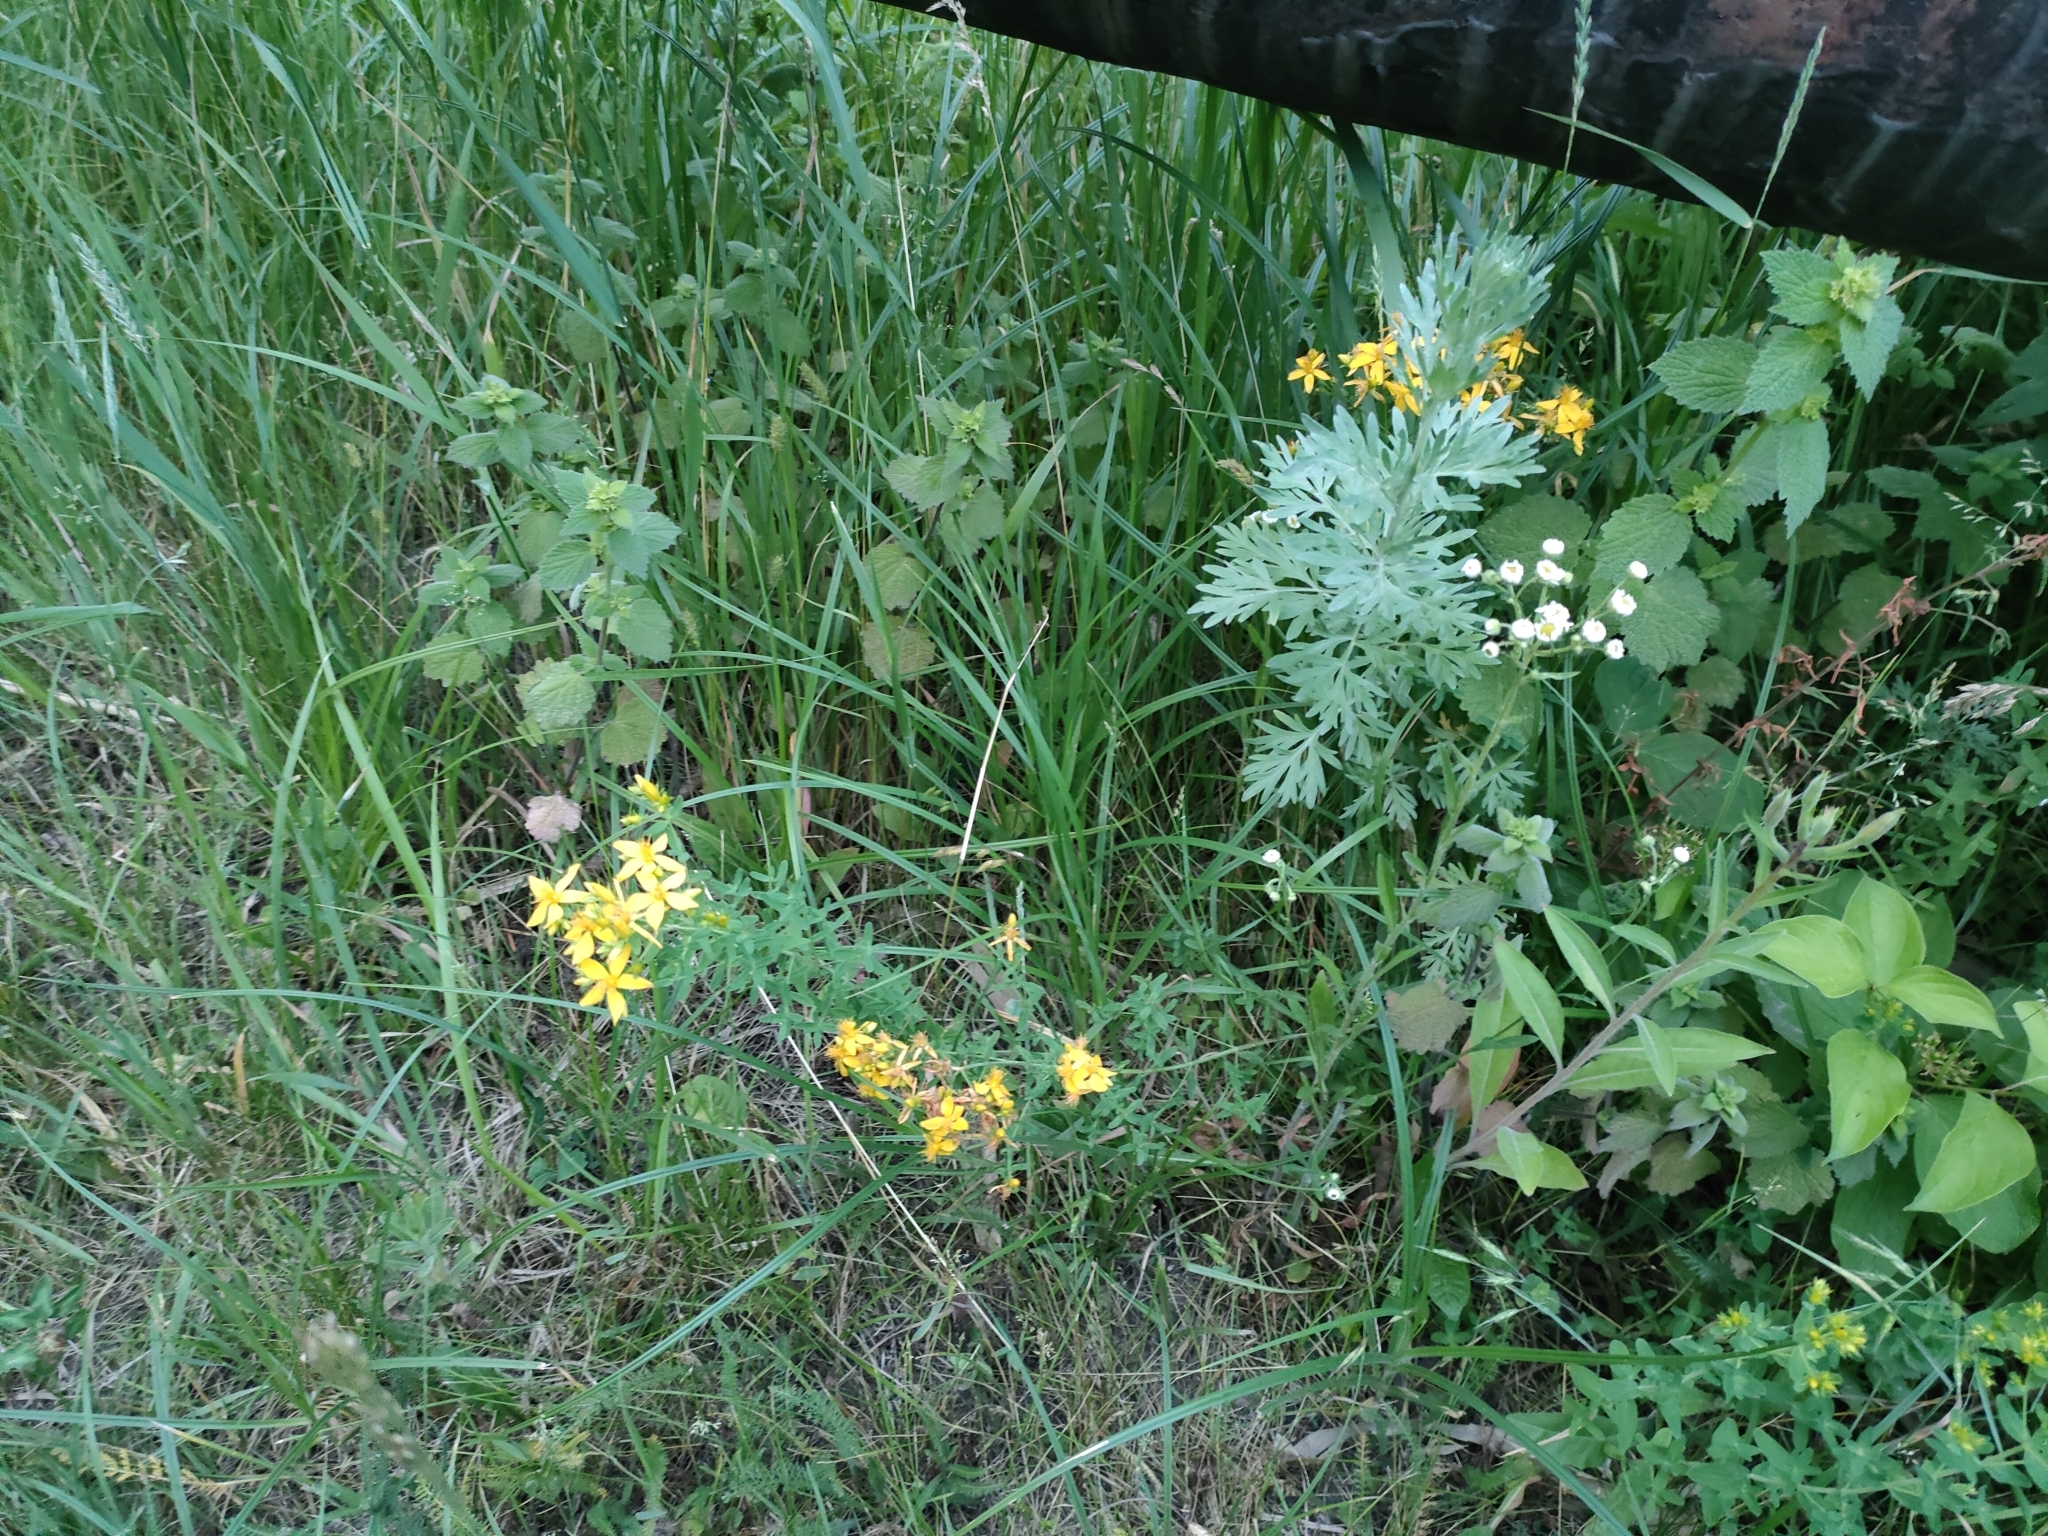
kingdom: Plantae
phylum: Tracheophyta
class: Magnoliopsida
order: Malpighiales
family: Hypericaceae
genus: Hypericum
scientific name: Hypericum perforatum
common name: Common st. johnswort
